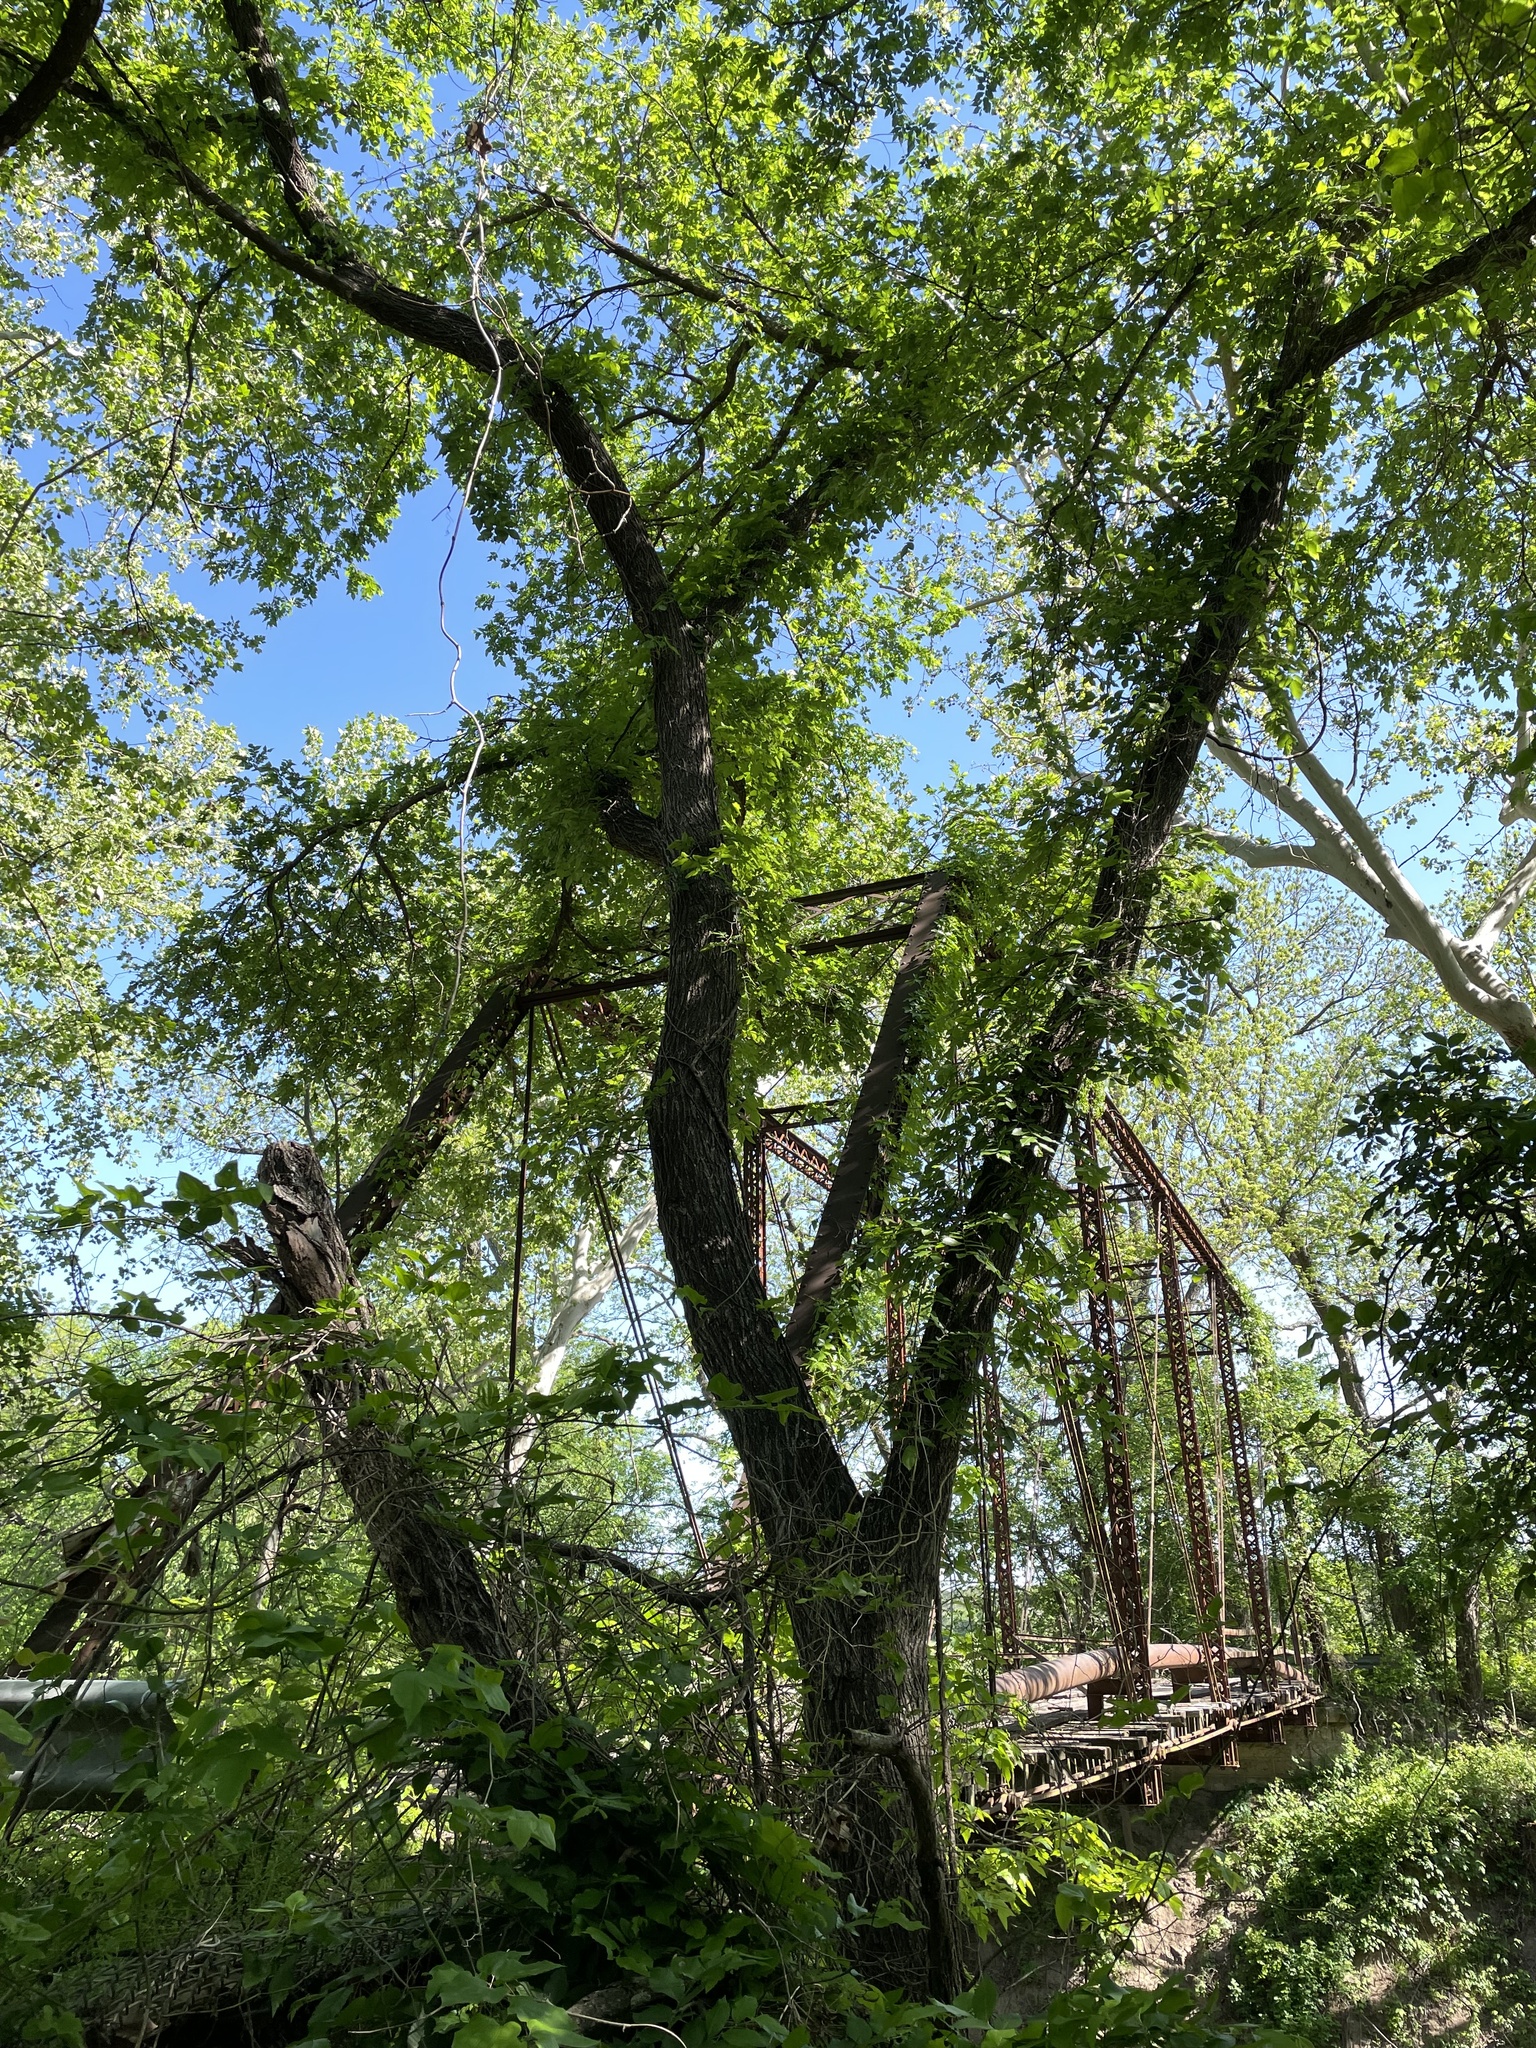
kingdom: Plantae
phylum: Tracheophyta
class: Magnoliopsida
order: Rosales
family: Ulmaceae
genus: Ulmus
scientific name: Ulmus americana
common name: American elm
